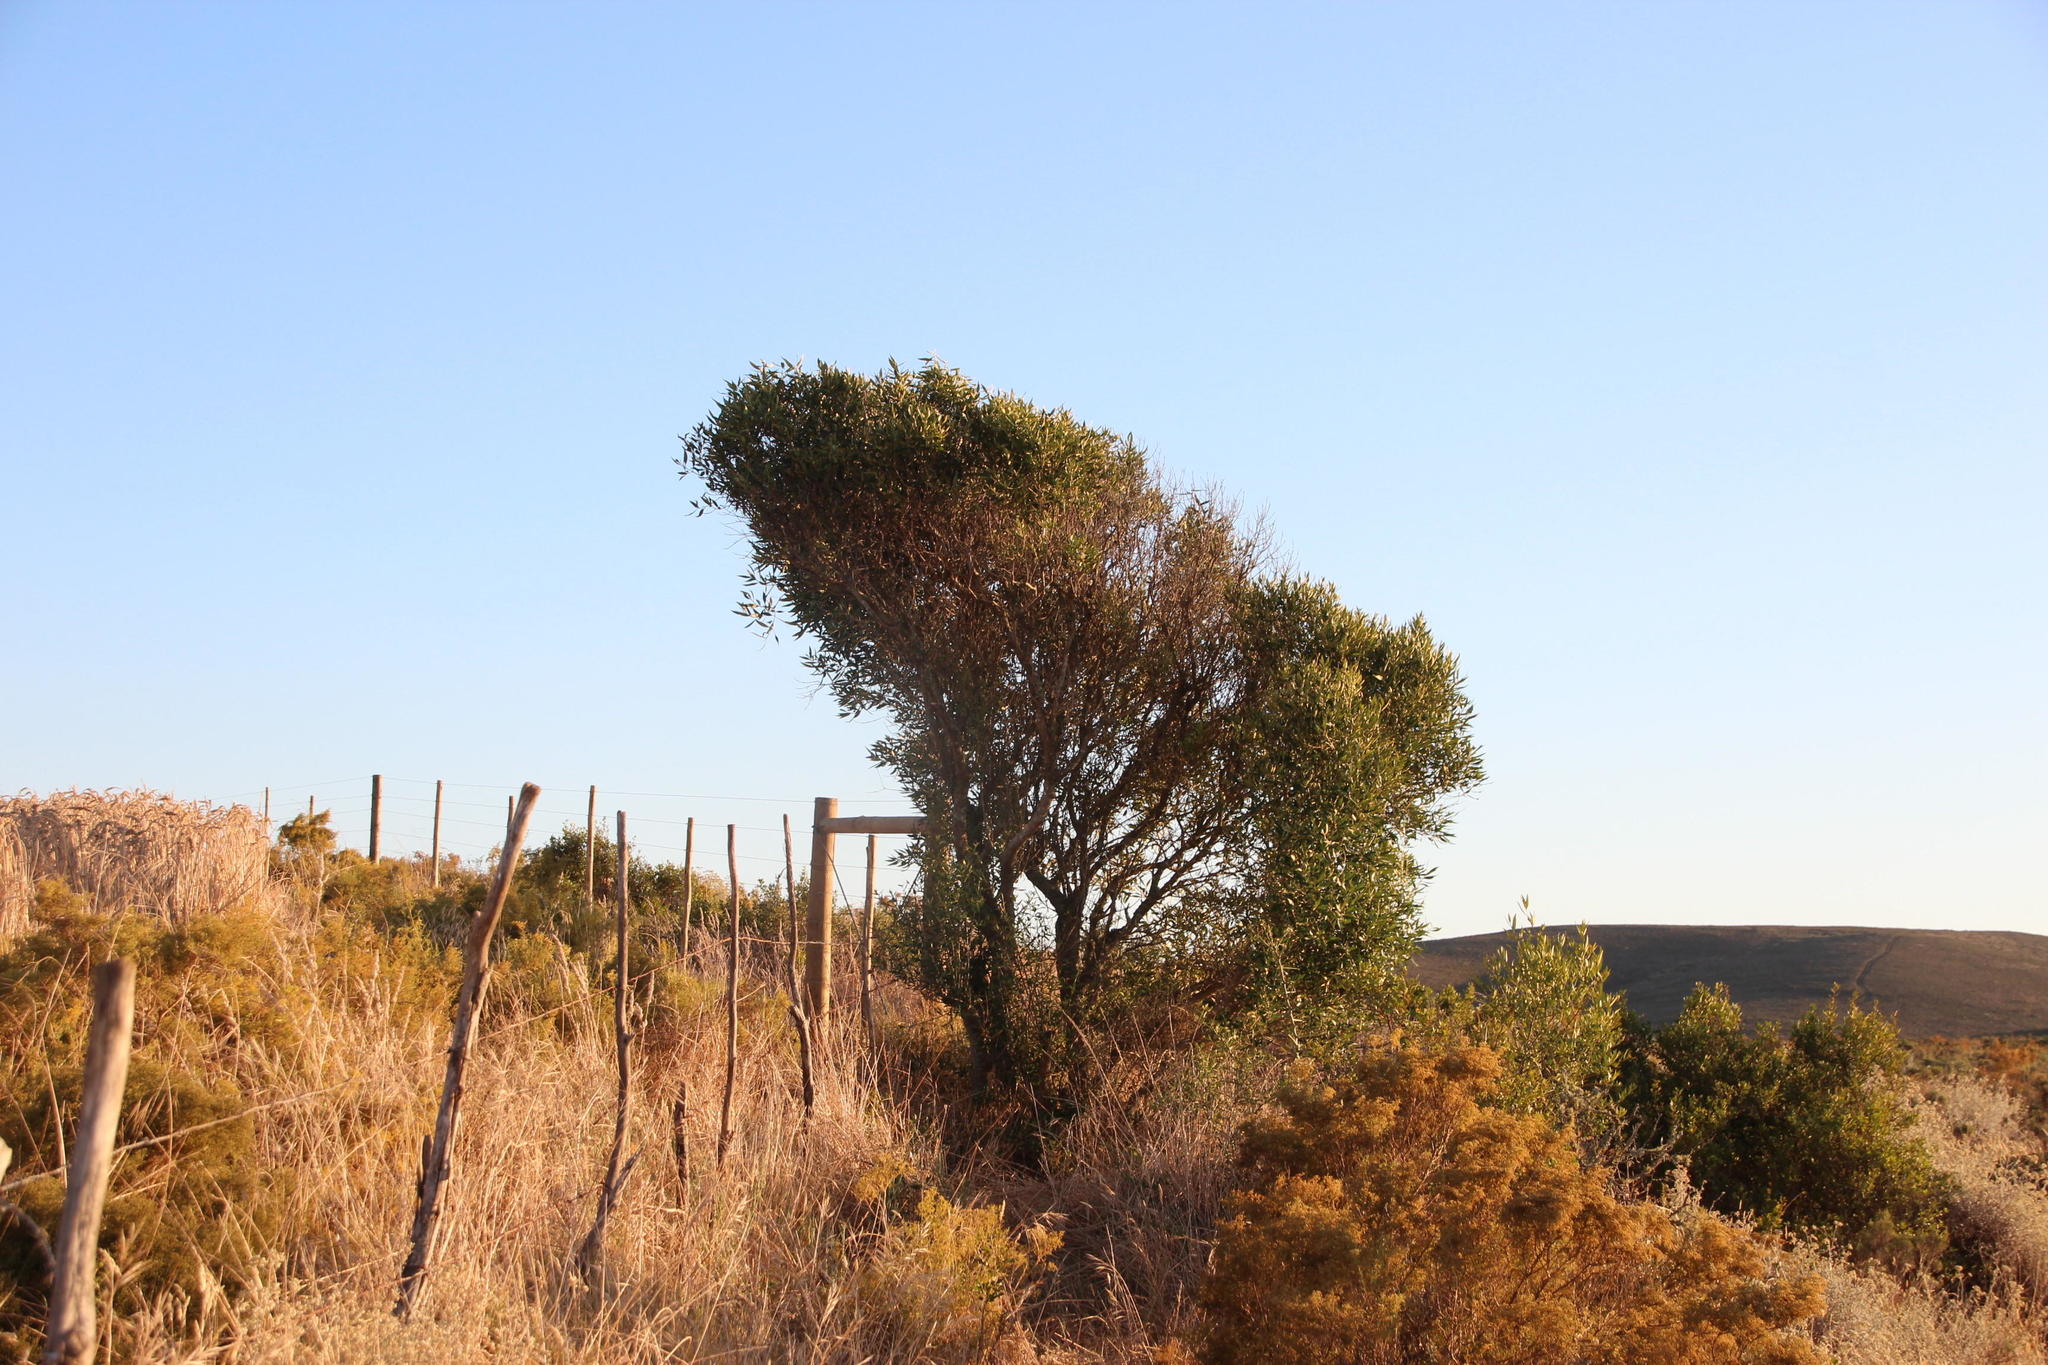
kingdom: Plantae
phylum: Tracheophyta
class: Magnoliopsida
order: Lamiales
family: Oleaceae
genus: Olea
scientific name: Olea europaea
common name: Olive
